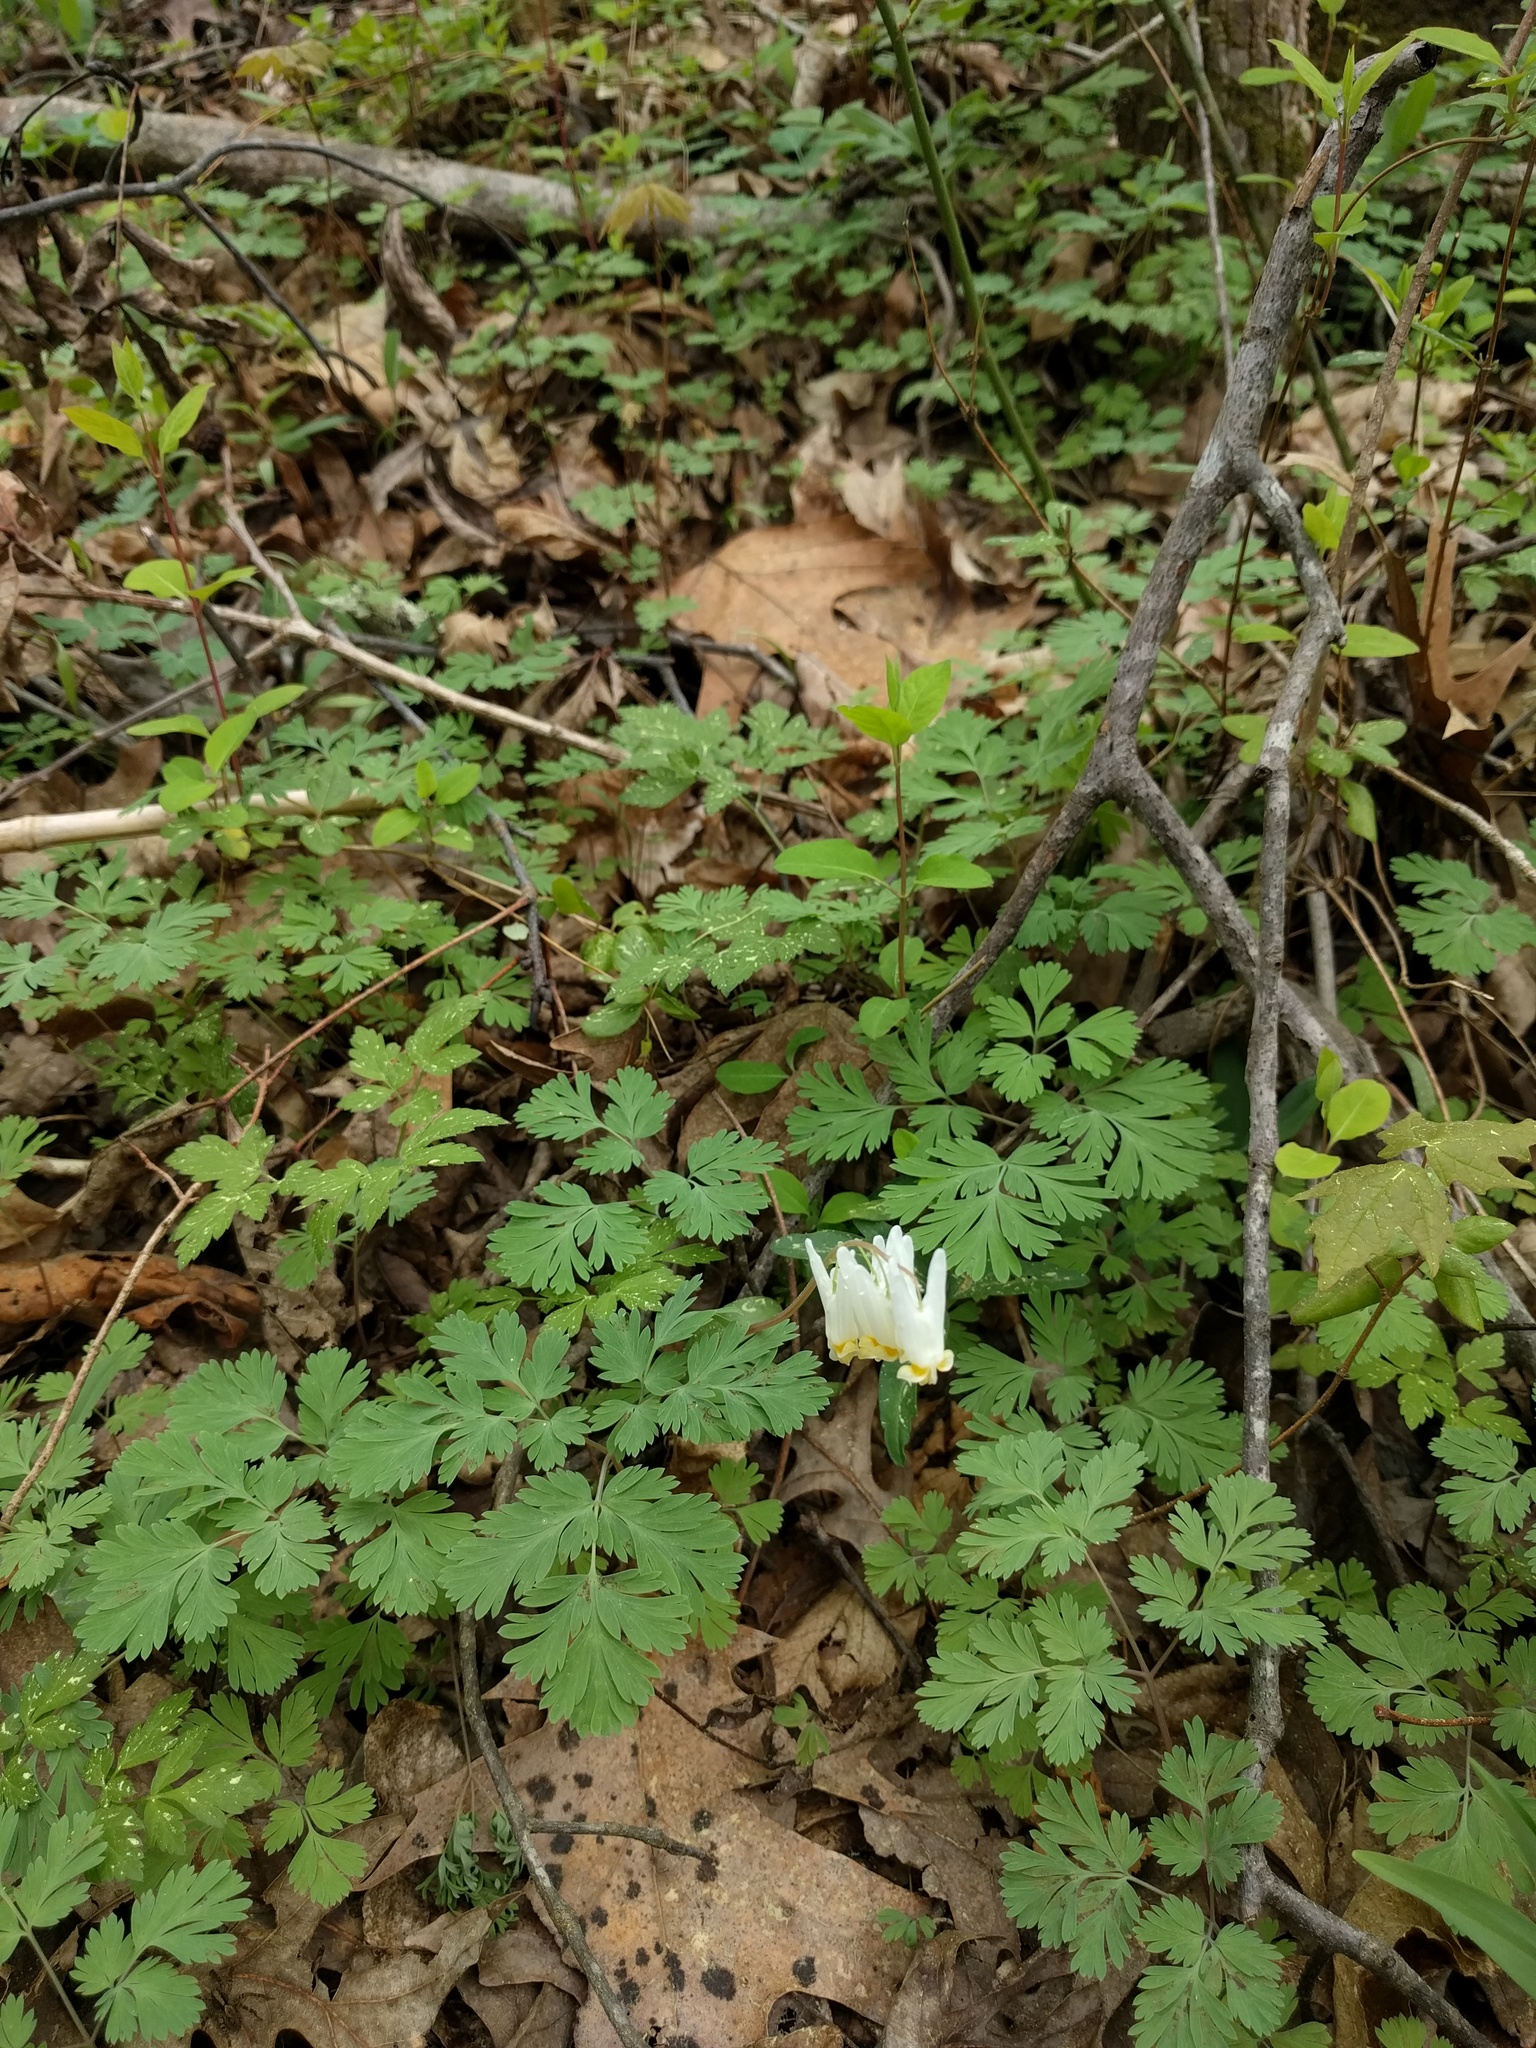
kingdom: Plantae
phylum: Tracheophyta
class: Magnoliopsida
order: Ranunculales
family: Papaveraceae
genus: Dicentra
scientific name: Dicentra cucullaria
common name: Dutchman's breeches
